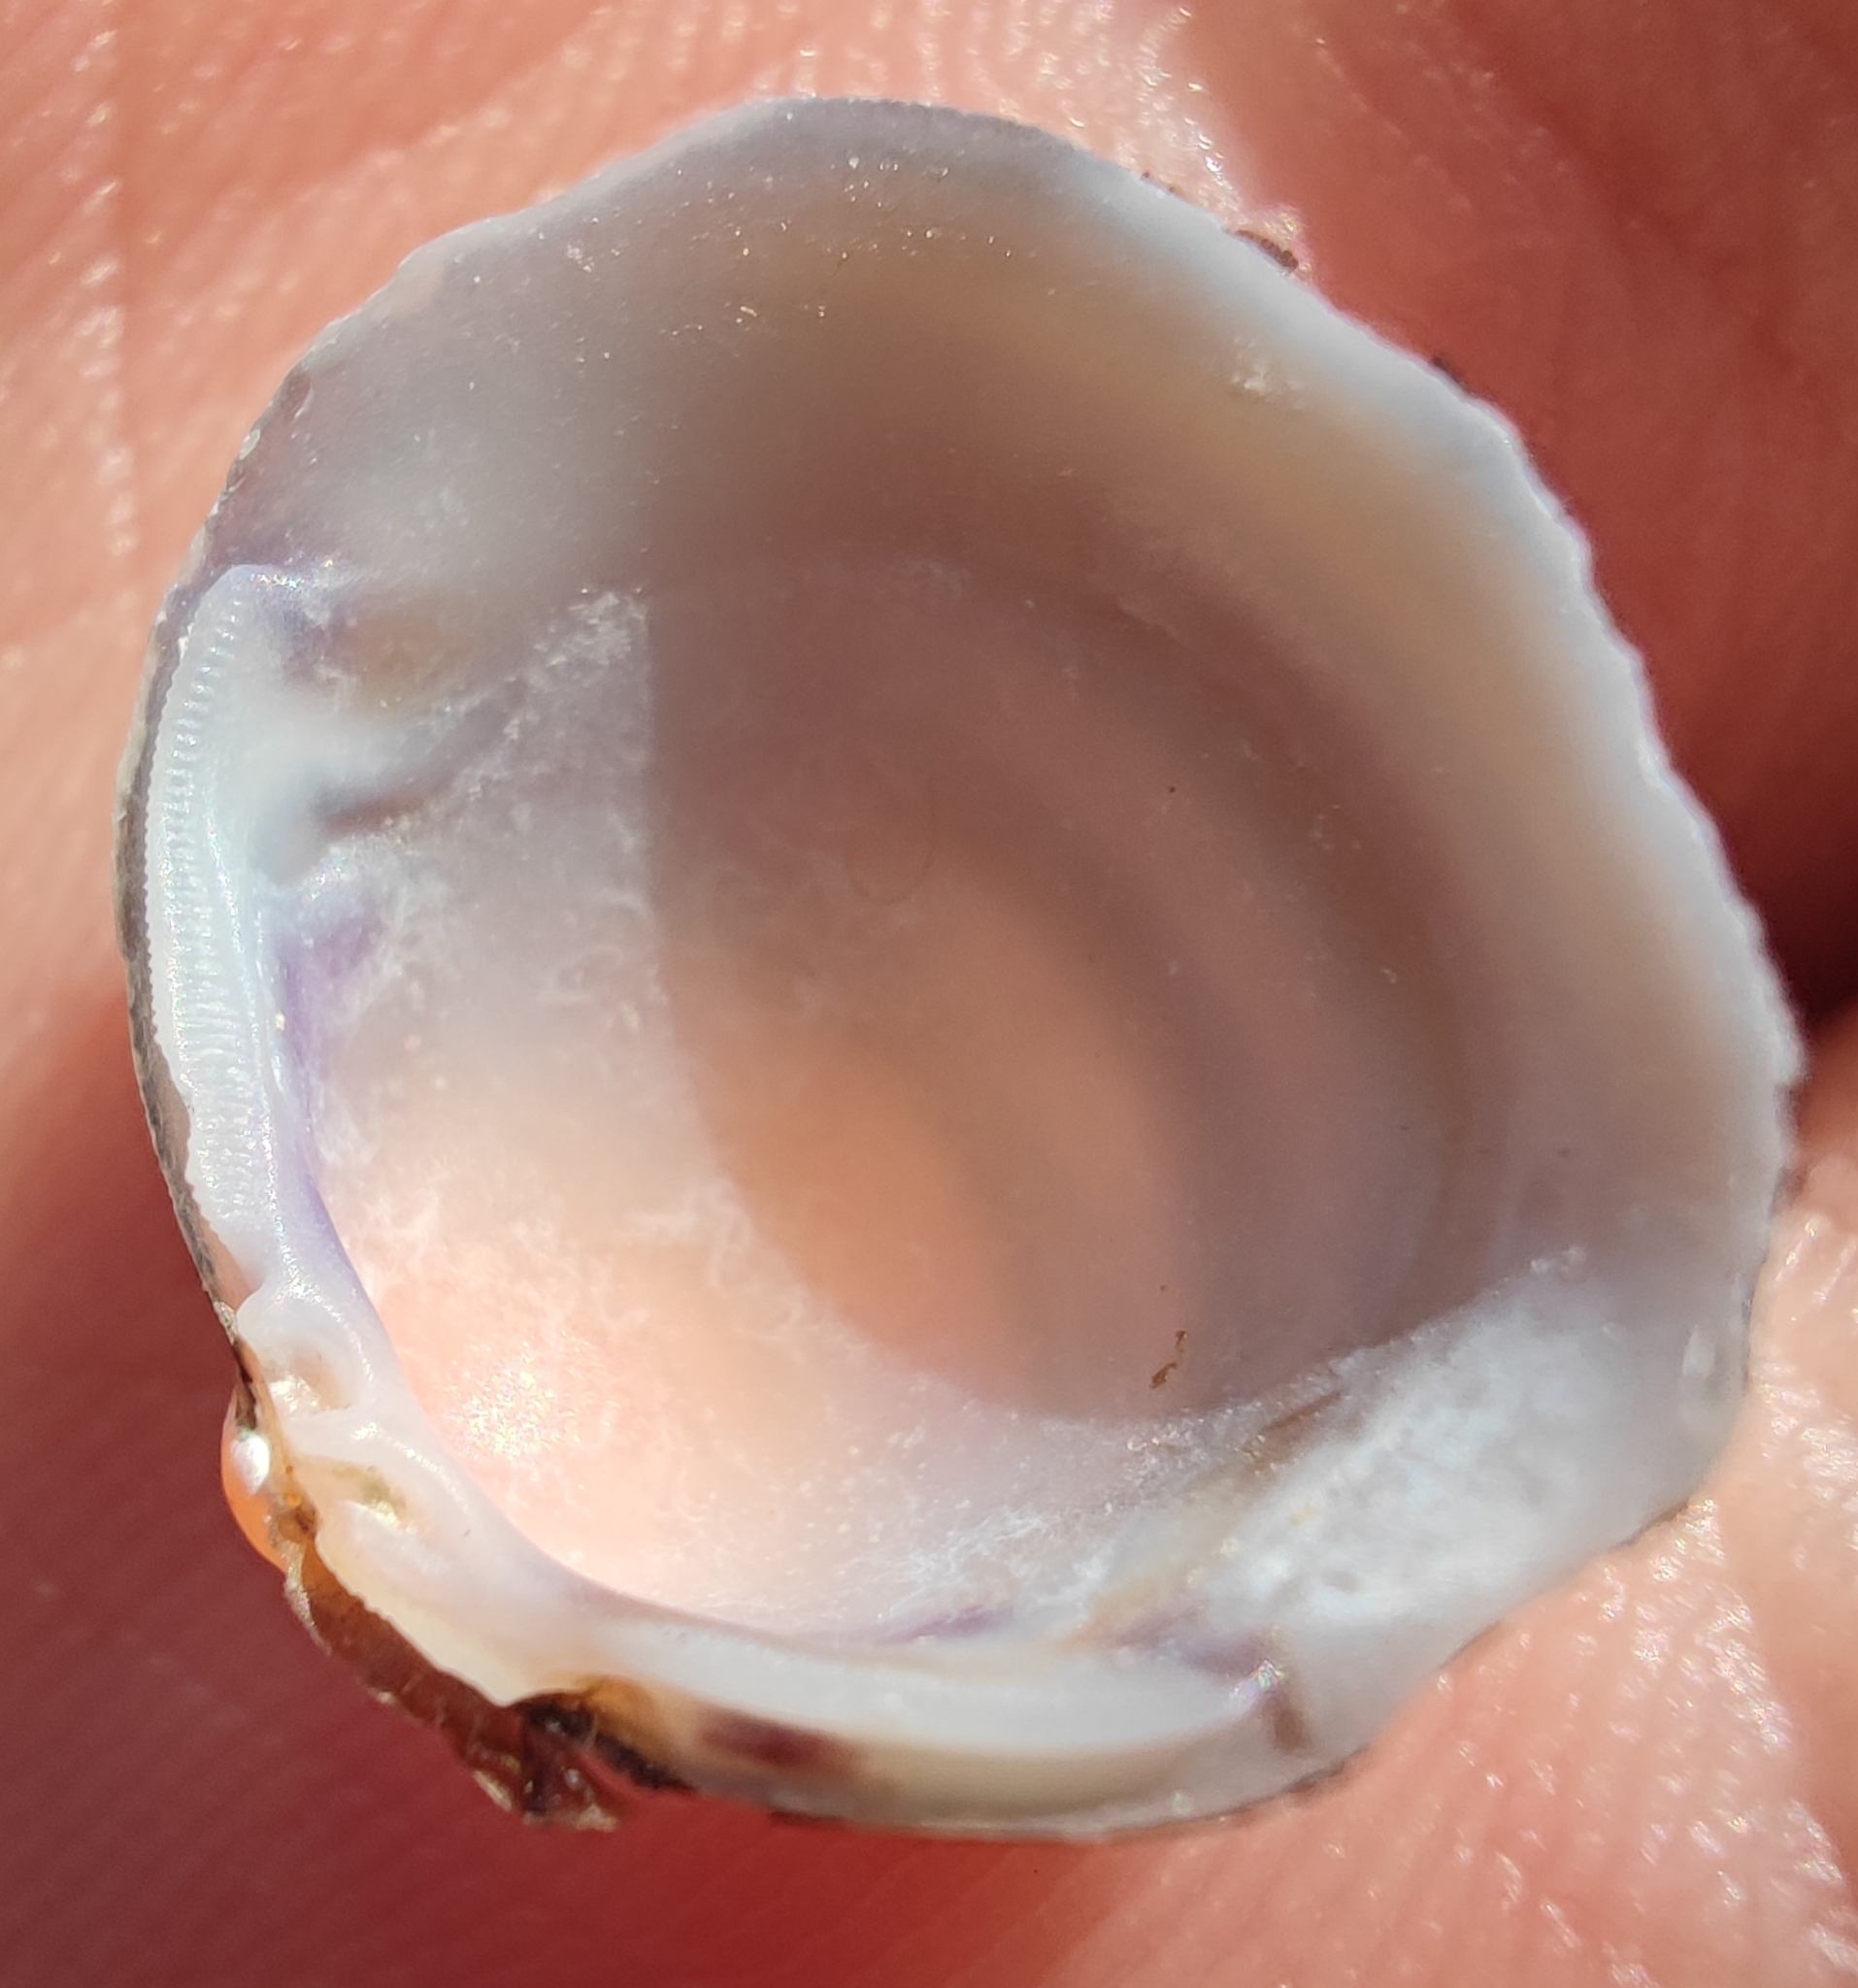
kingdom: Animalia
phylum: Mollusca
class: Bivalvia
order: Venerida
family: Cyrenidae
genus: Corbicula
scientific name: Corbicula fluminea
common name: Asian clam
